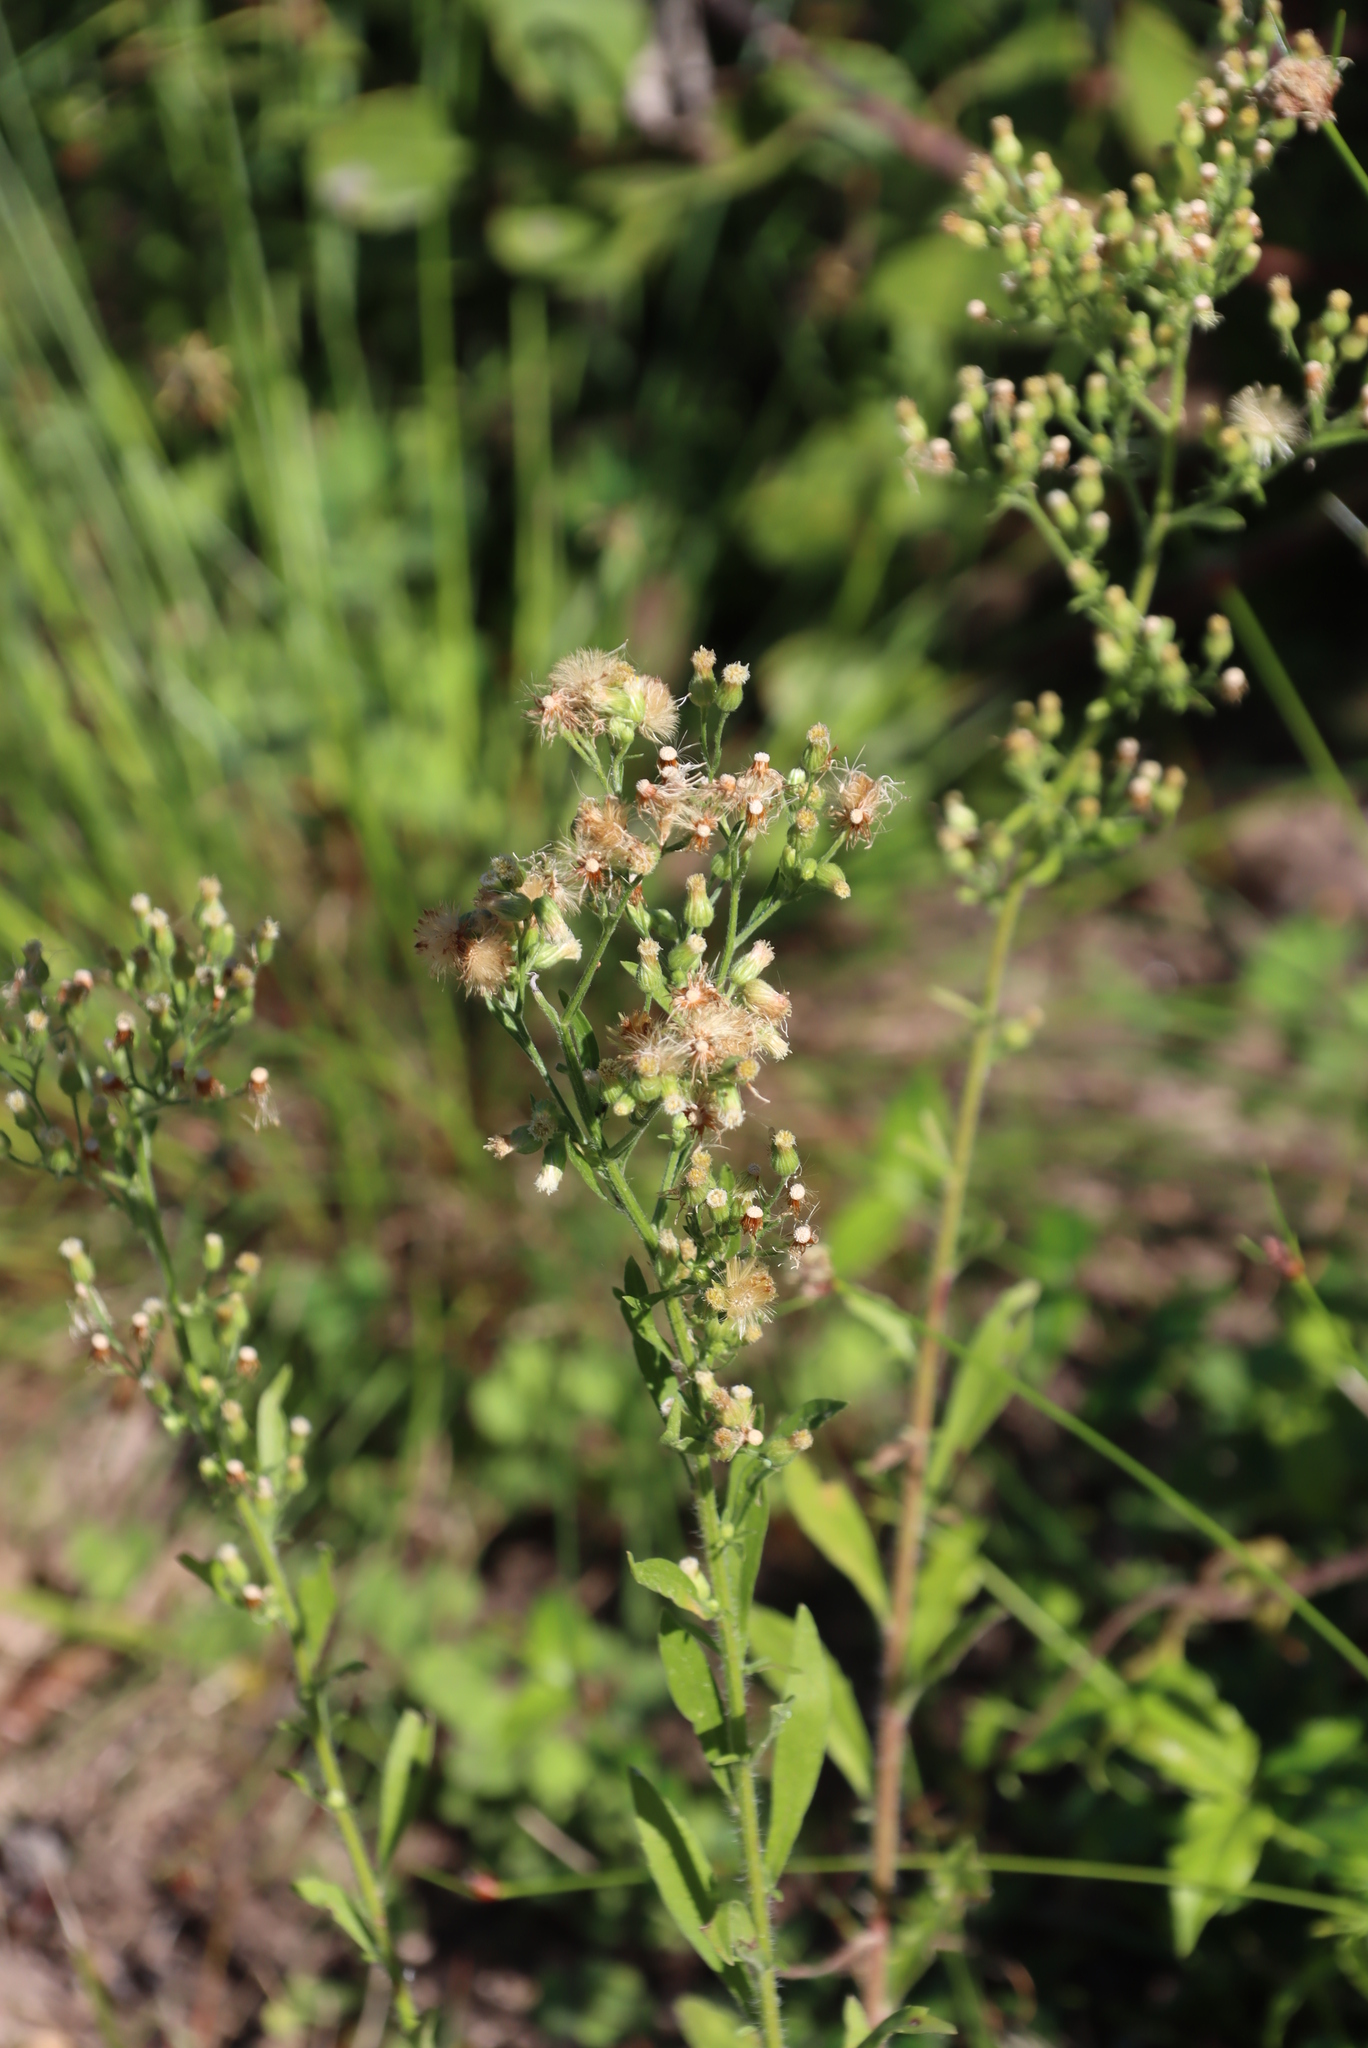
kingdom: Plantae
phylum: Tracheophyta
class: Magnoliopsida
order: Asterales
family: Asteraceae
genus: Erigeron
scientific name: Erigeron sumatrensis
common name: Daisy
